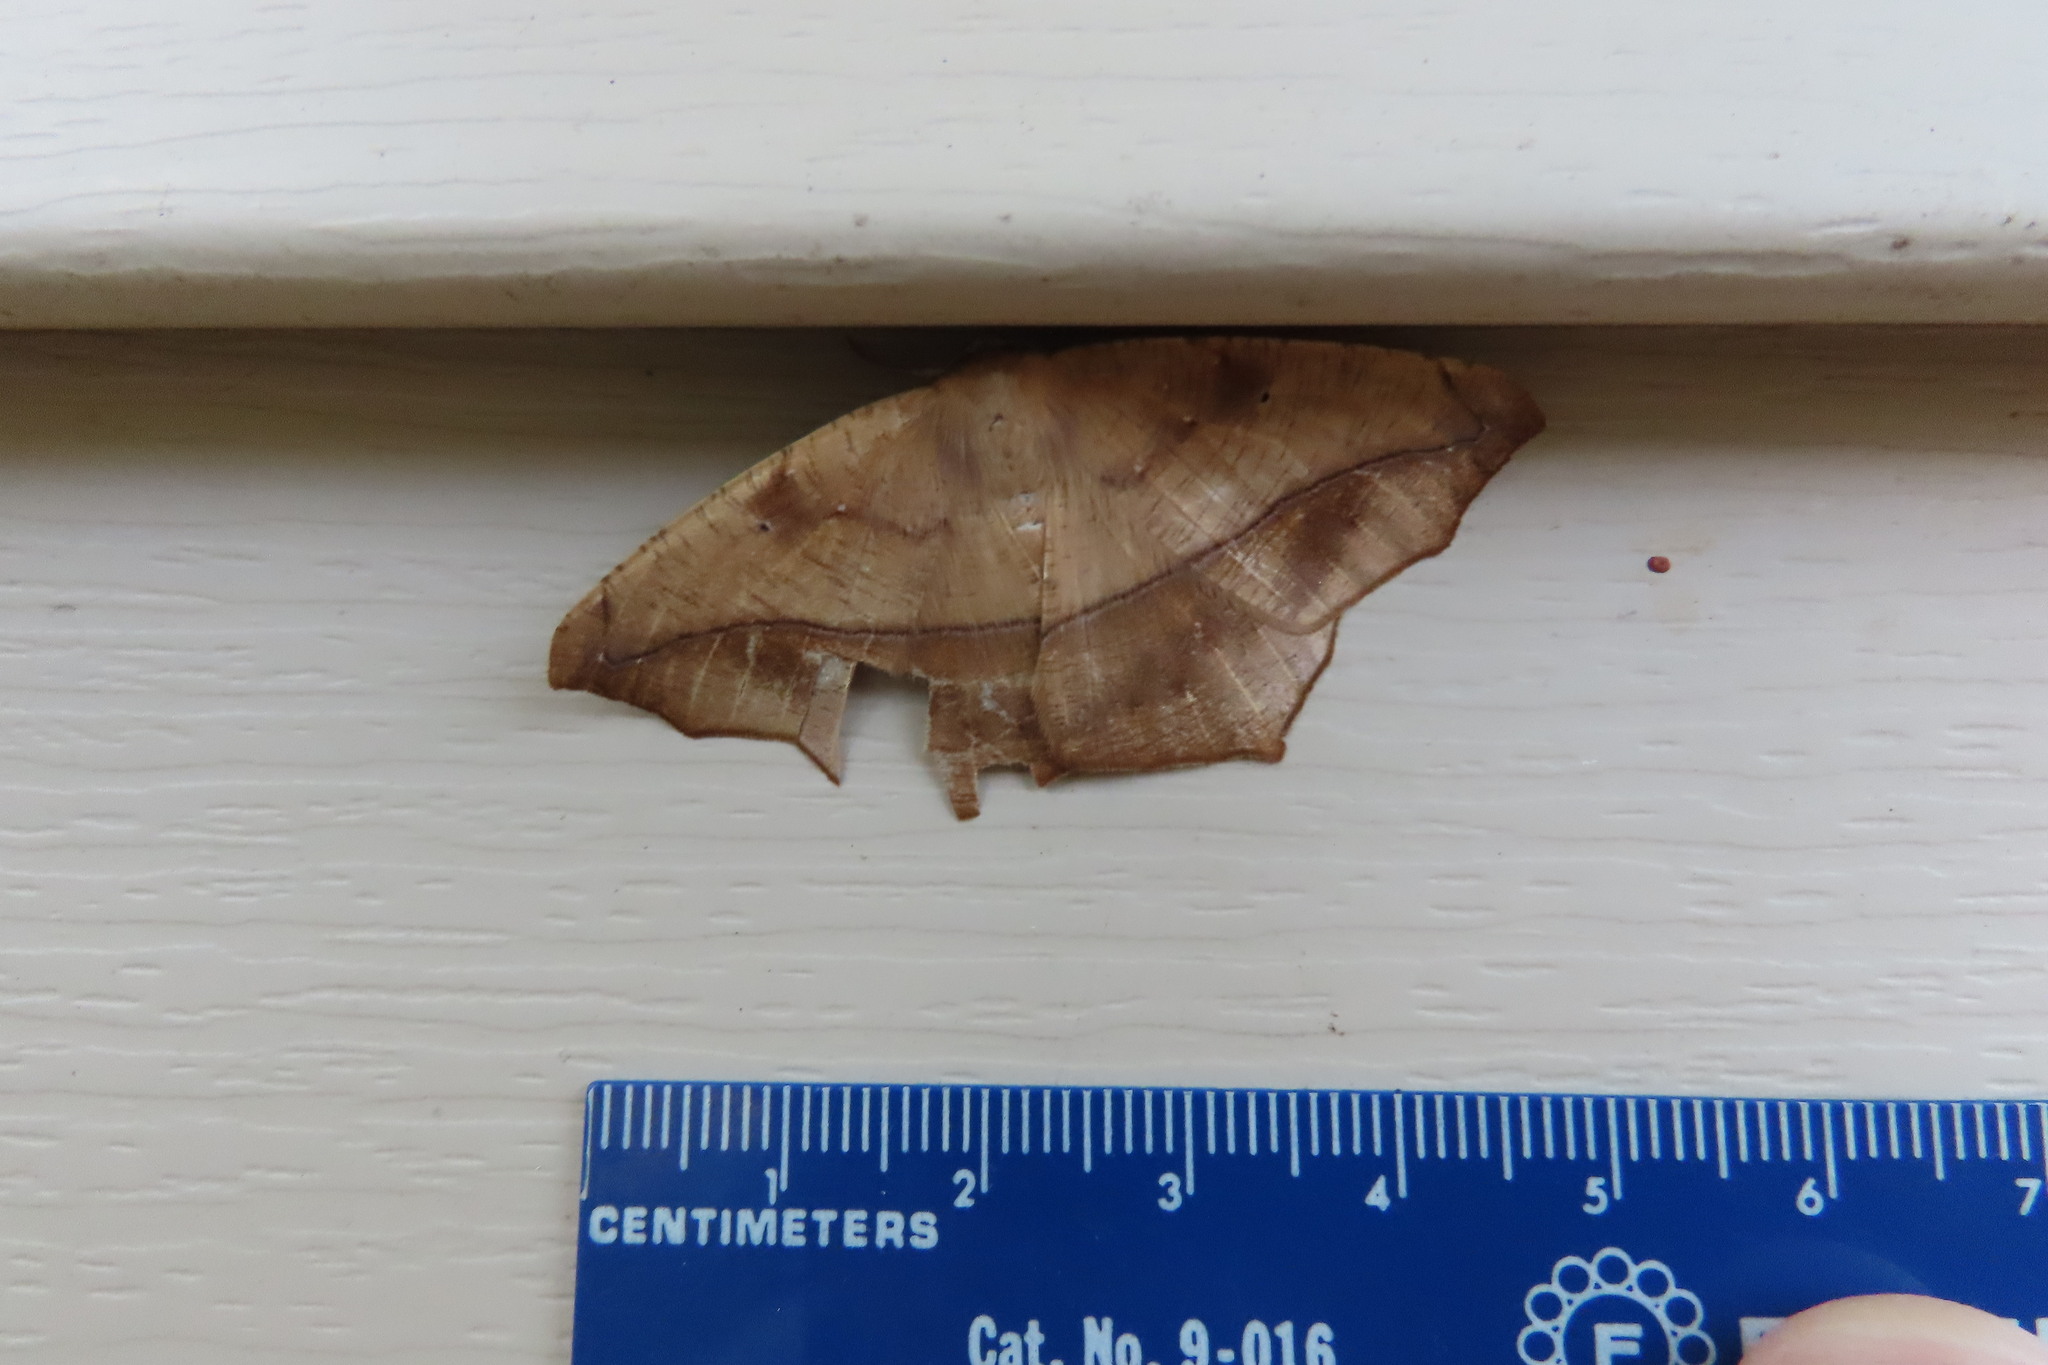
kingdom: Animalia
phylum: Arthropoda
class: Insecta
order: Lepidoptera
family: Geometridae
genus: Prochoerodes
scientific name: Prochoerodes lineola
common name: Large maple spanworm
